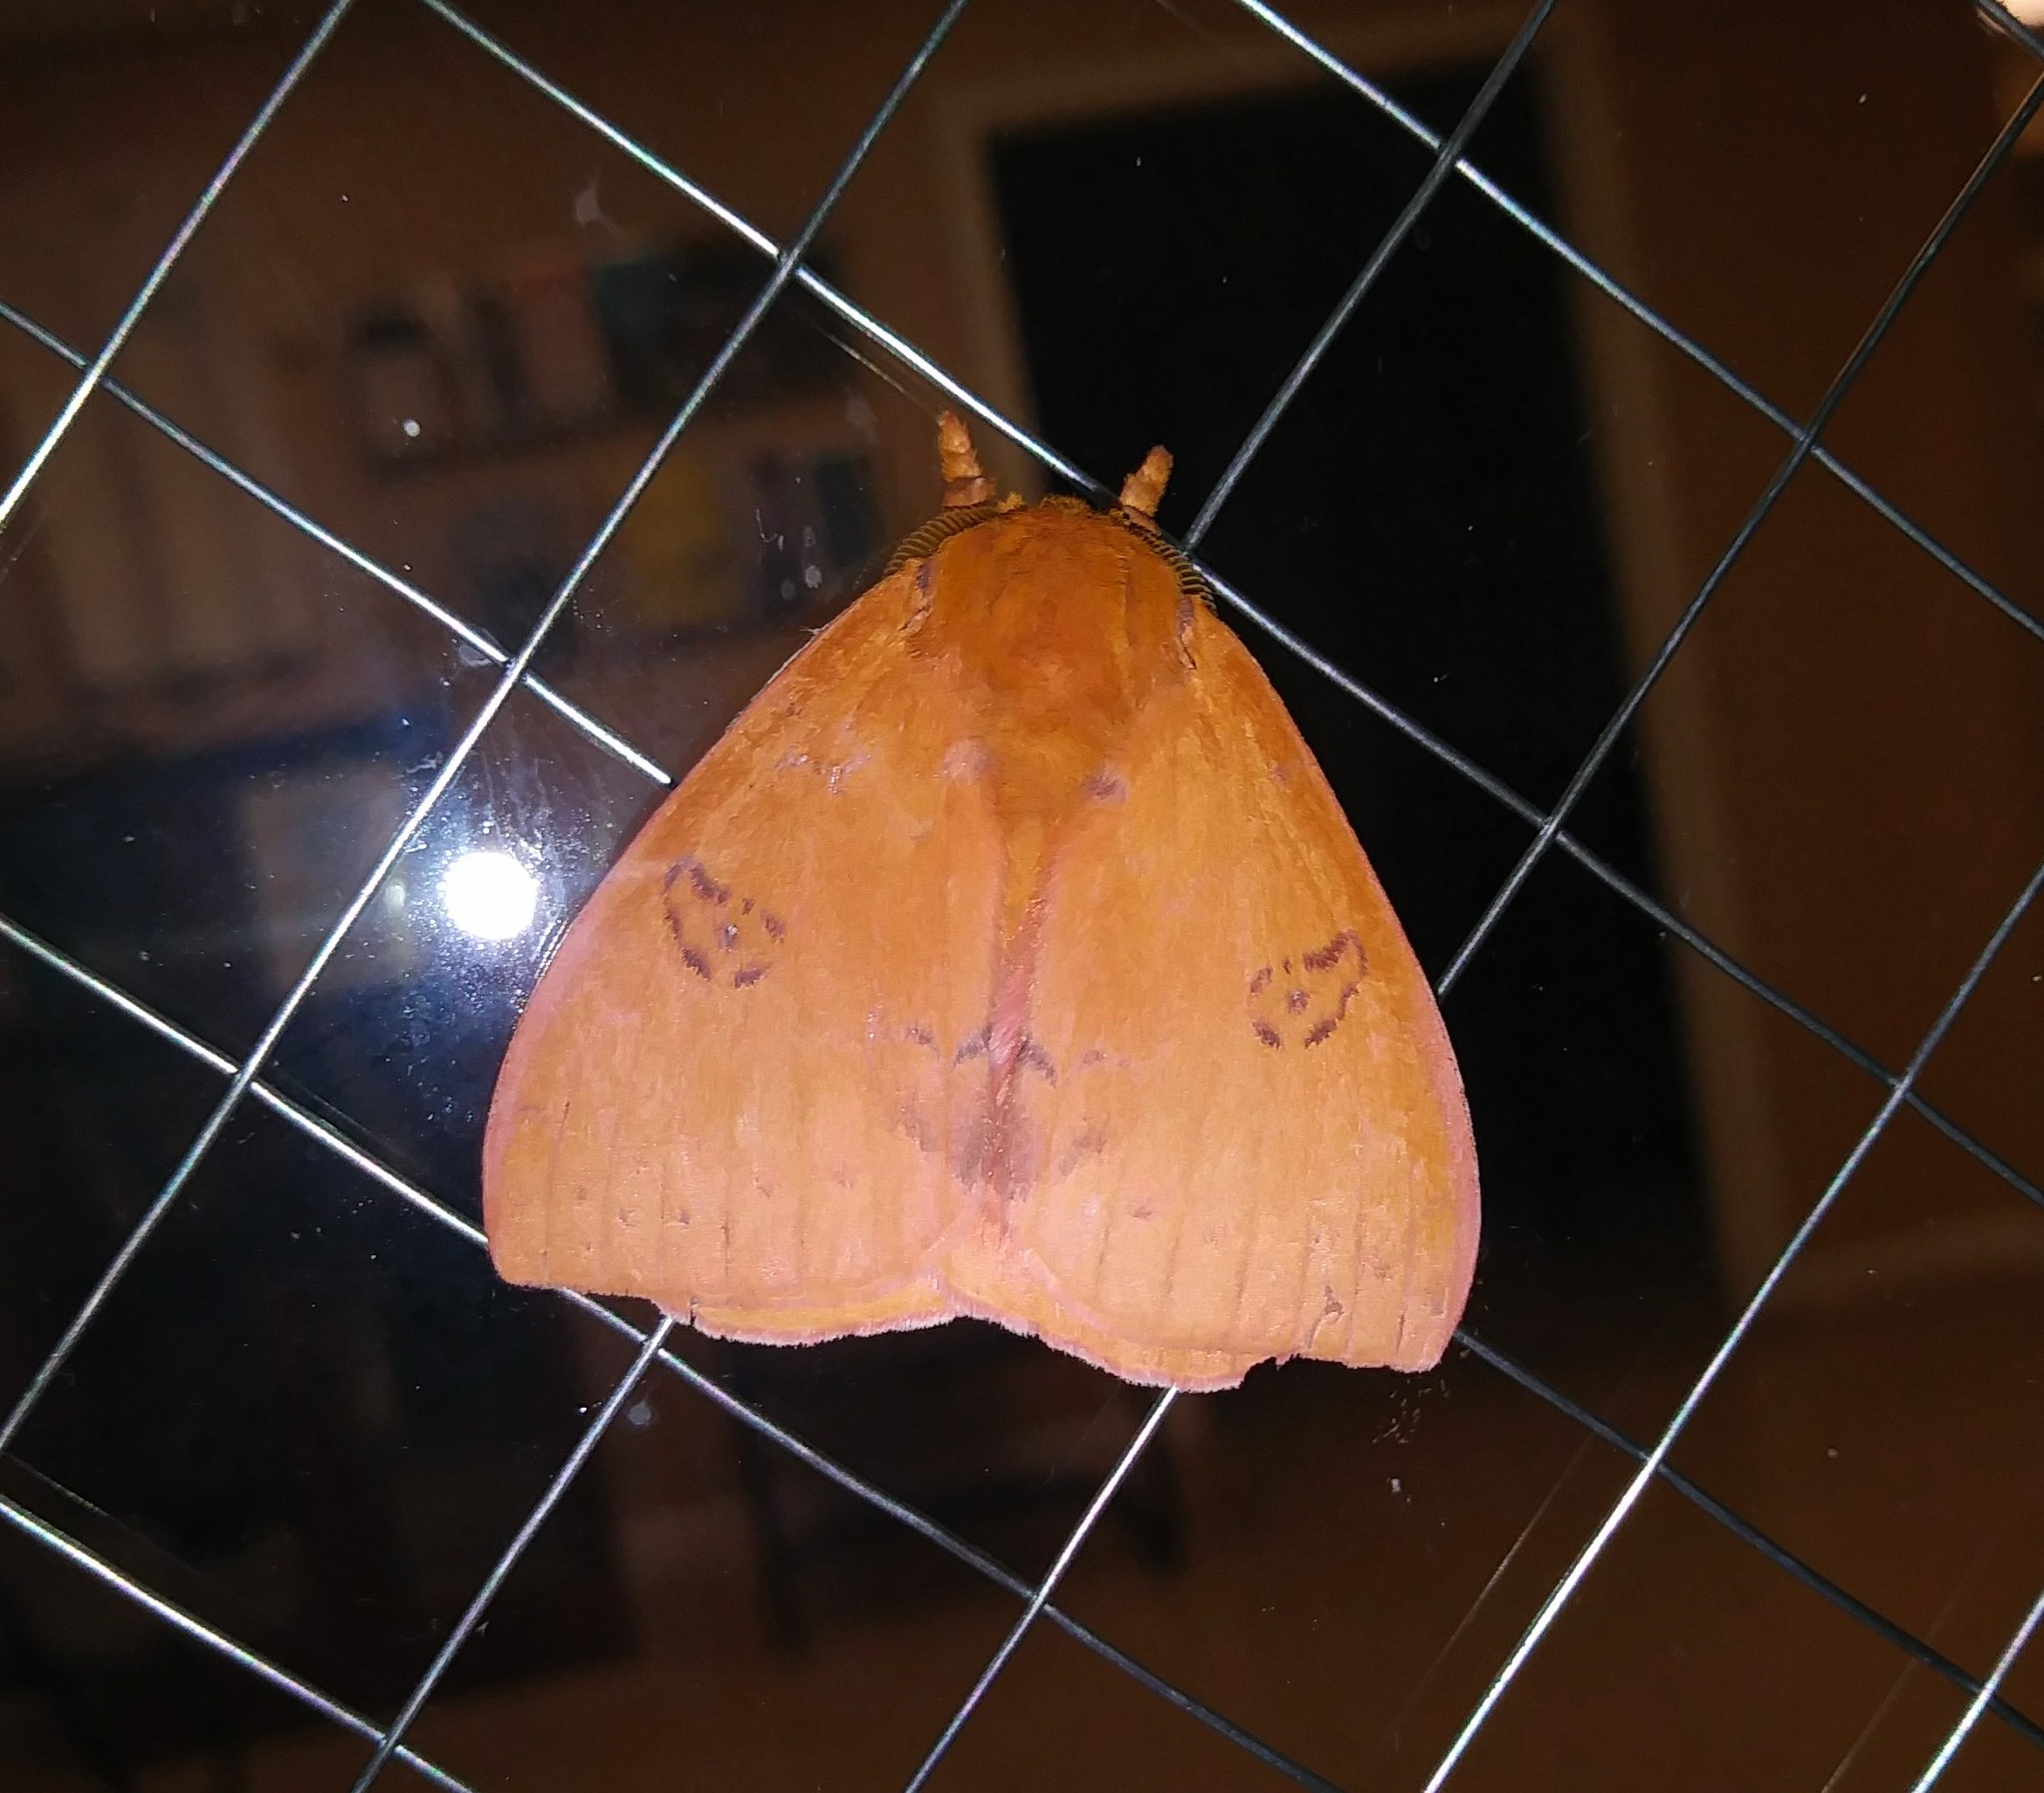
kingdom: Animalia
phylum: Arthropoda
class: Insecta
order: Lepidoptera
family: Saturniidae
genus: Automeris
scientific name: Automeris io
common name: Io moth
